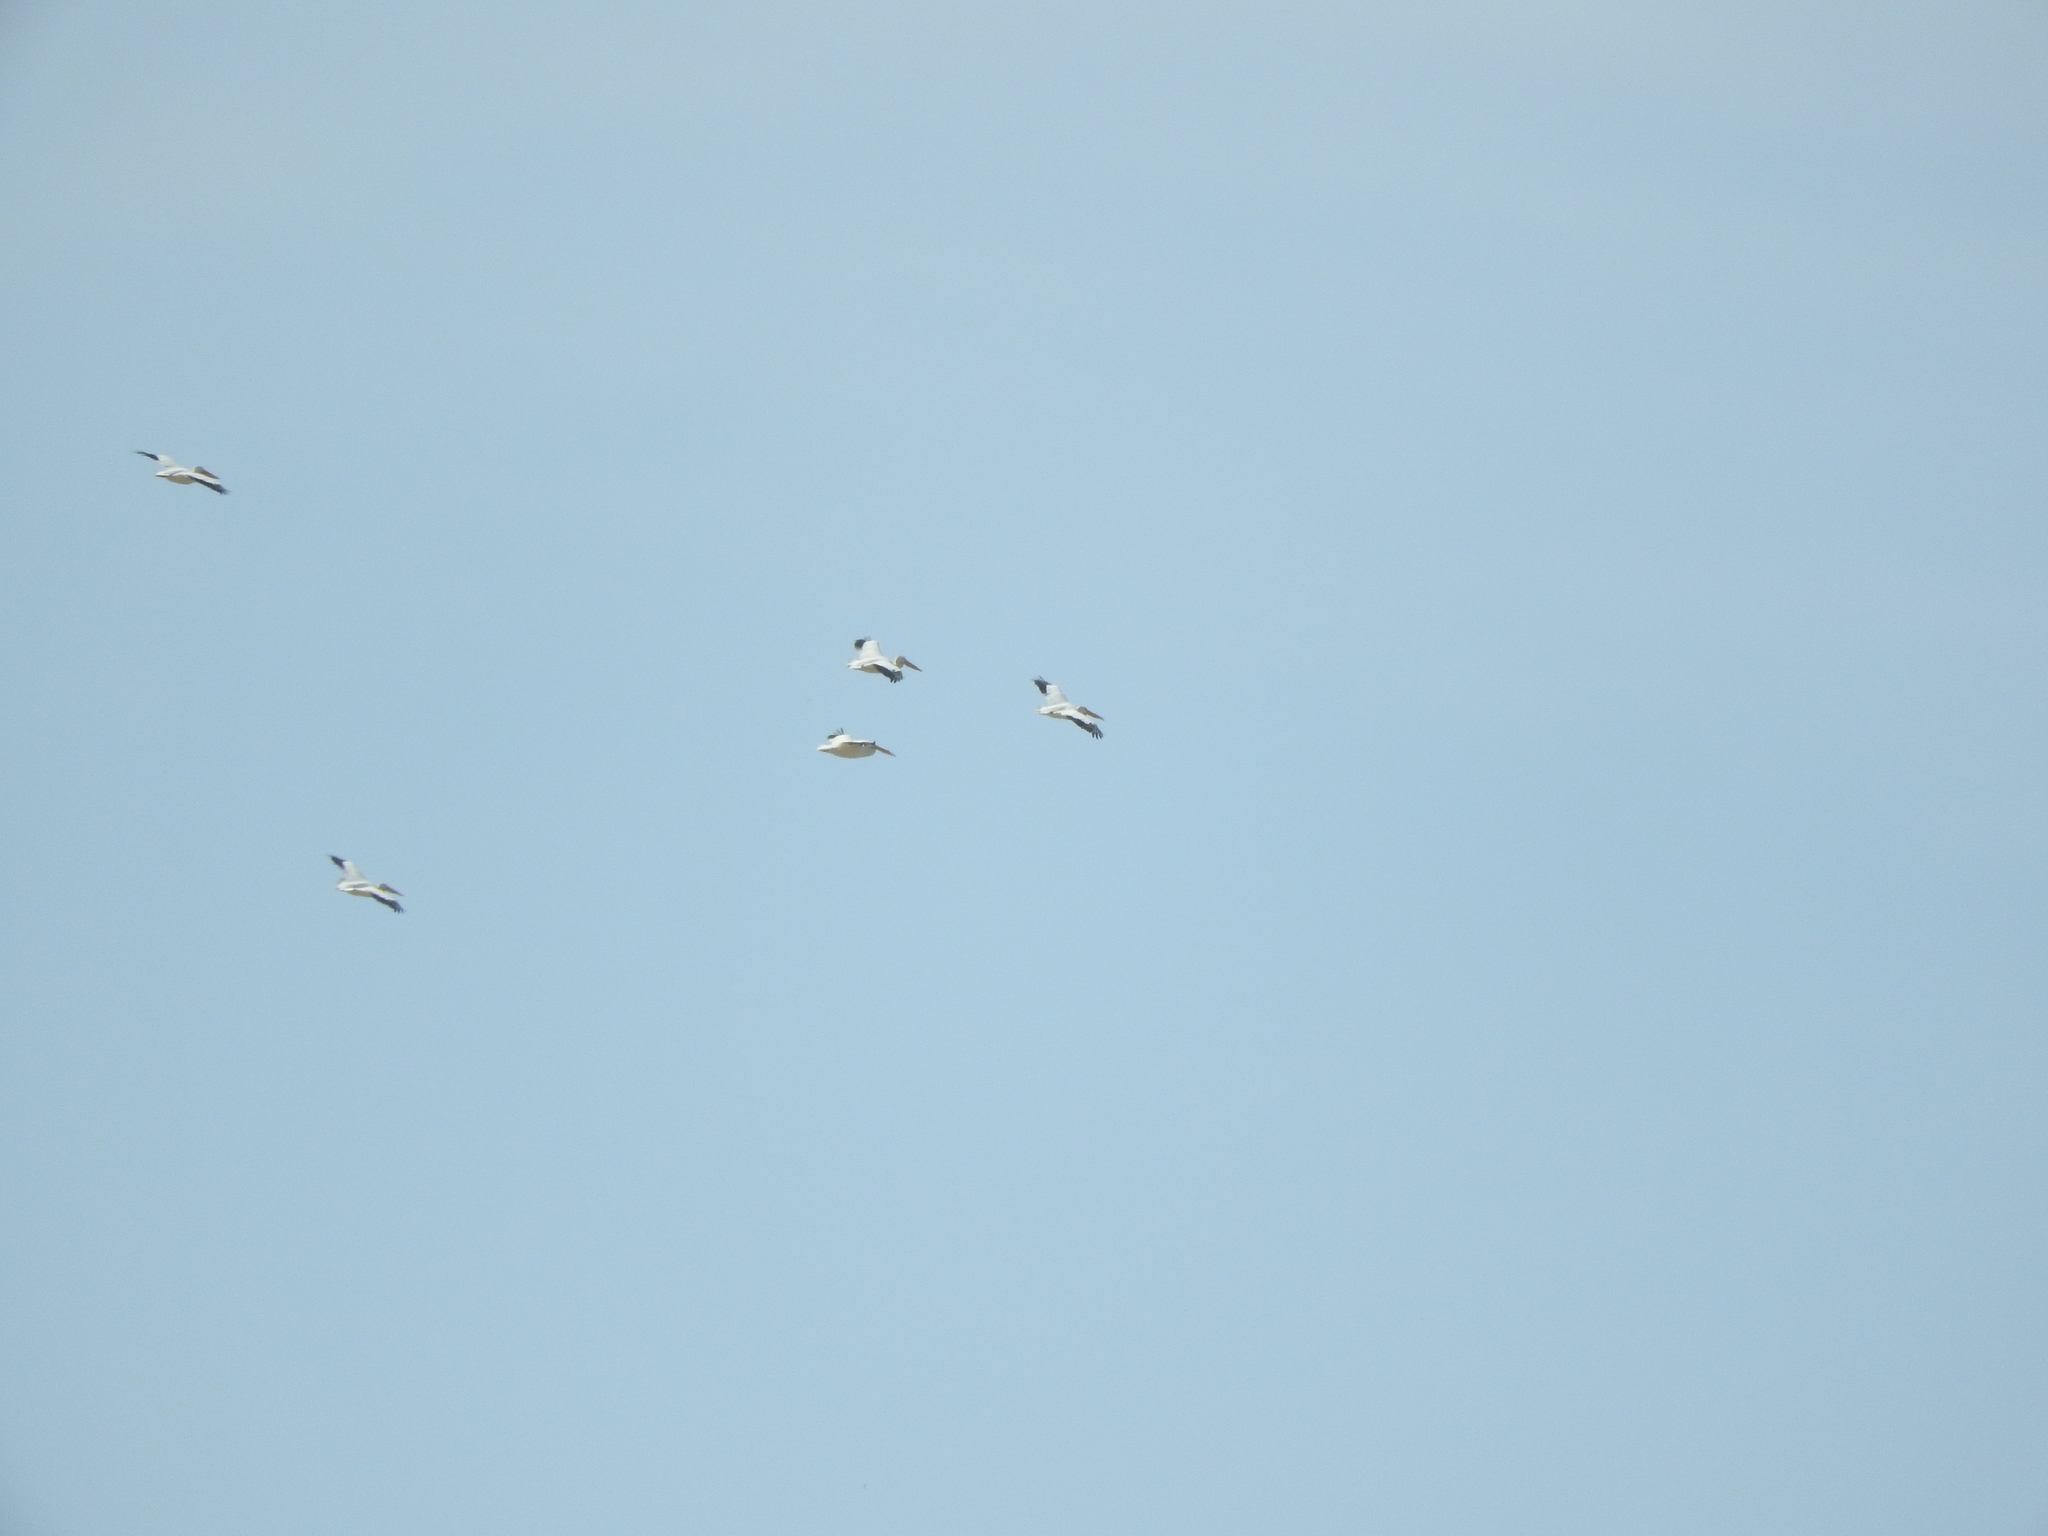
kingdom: Animalia
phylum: Chordata
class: Aves
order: Pelecaniformes
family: Pelecanidae
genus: Pelecanus
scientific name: Pelecanus erythrorhynchos
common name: American white pelican
